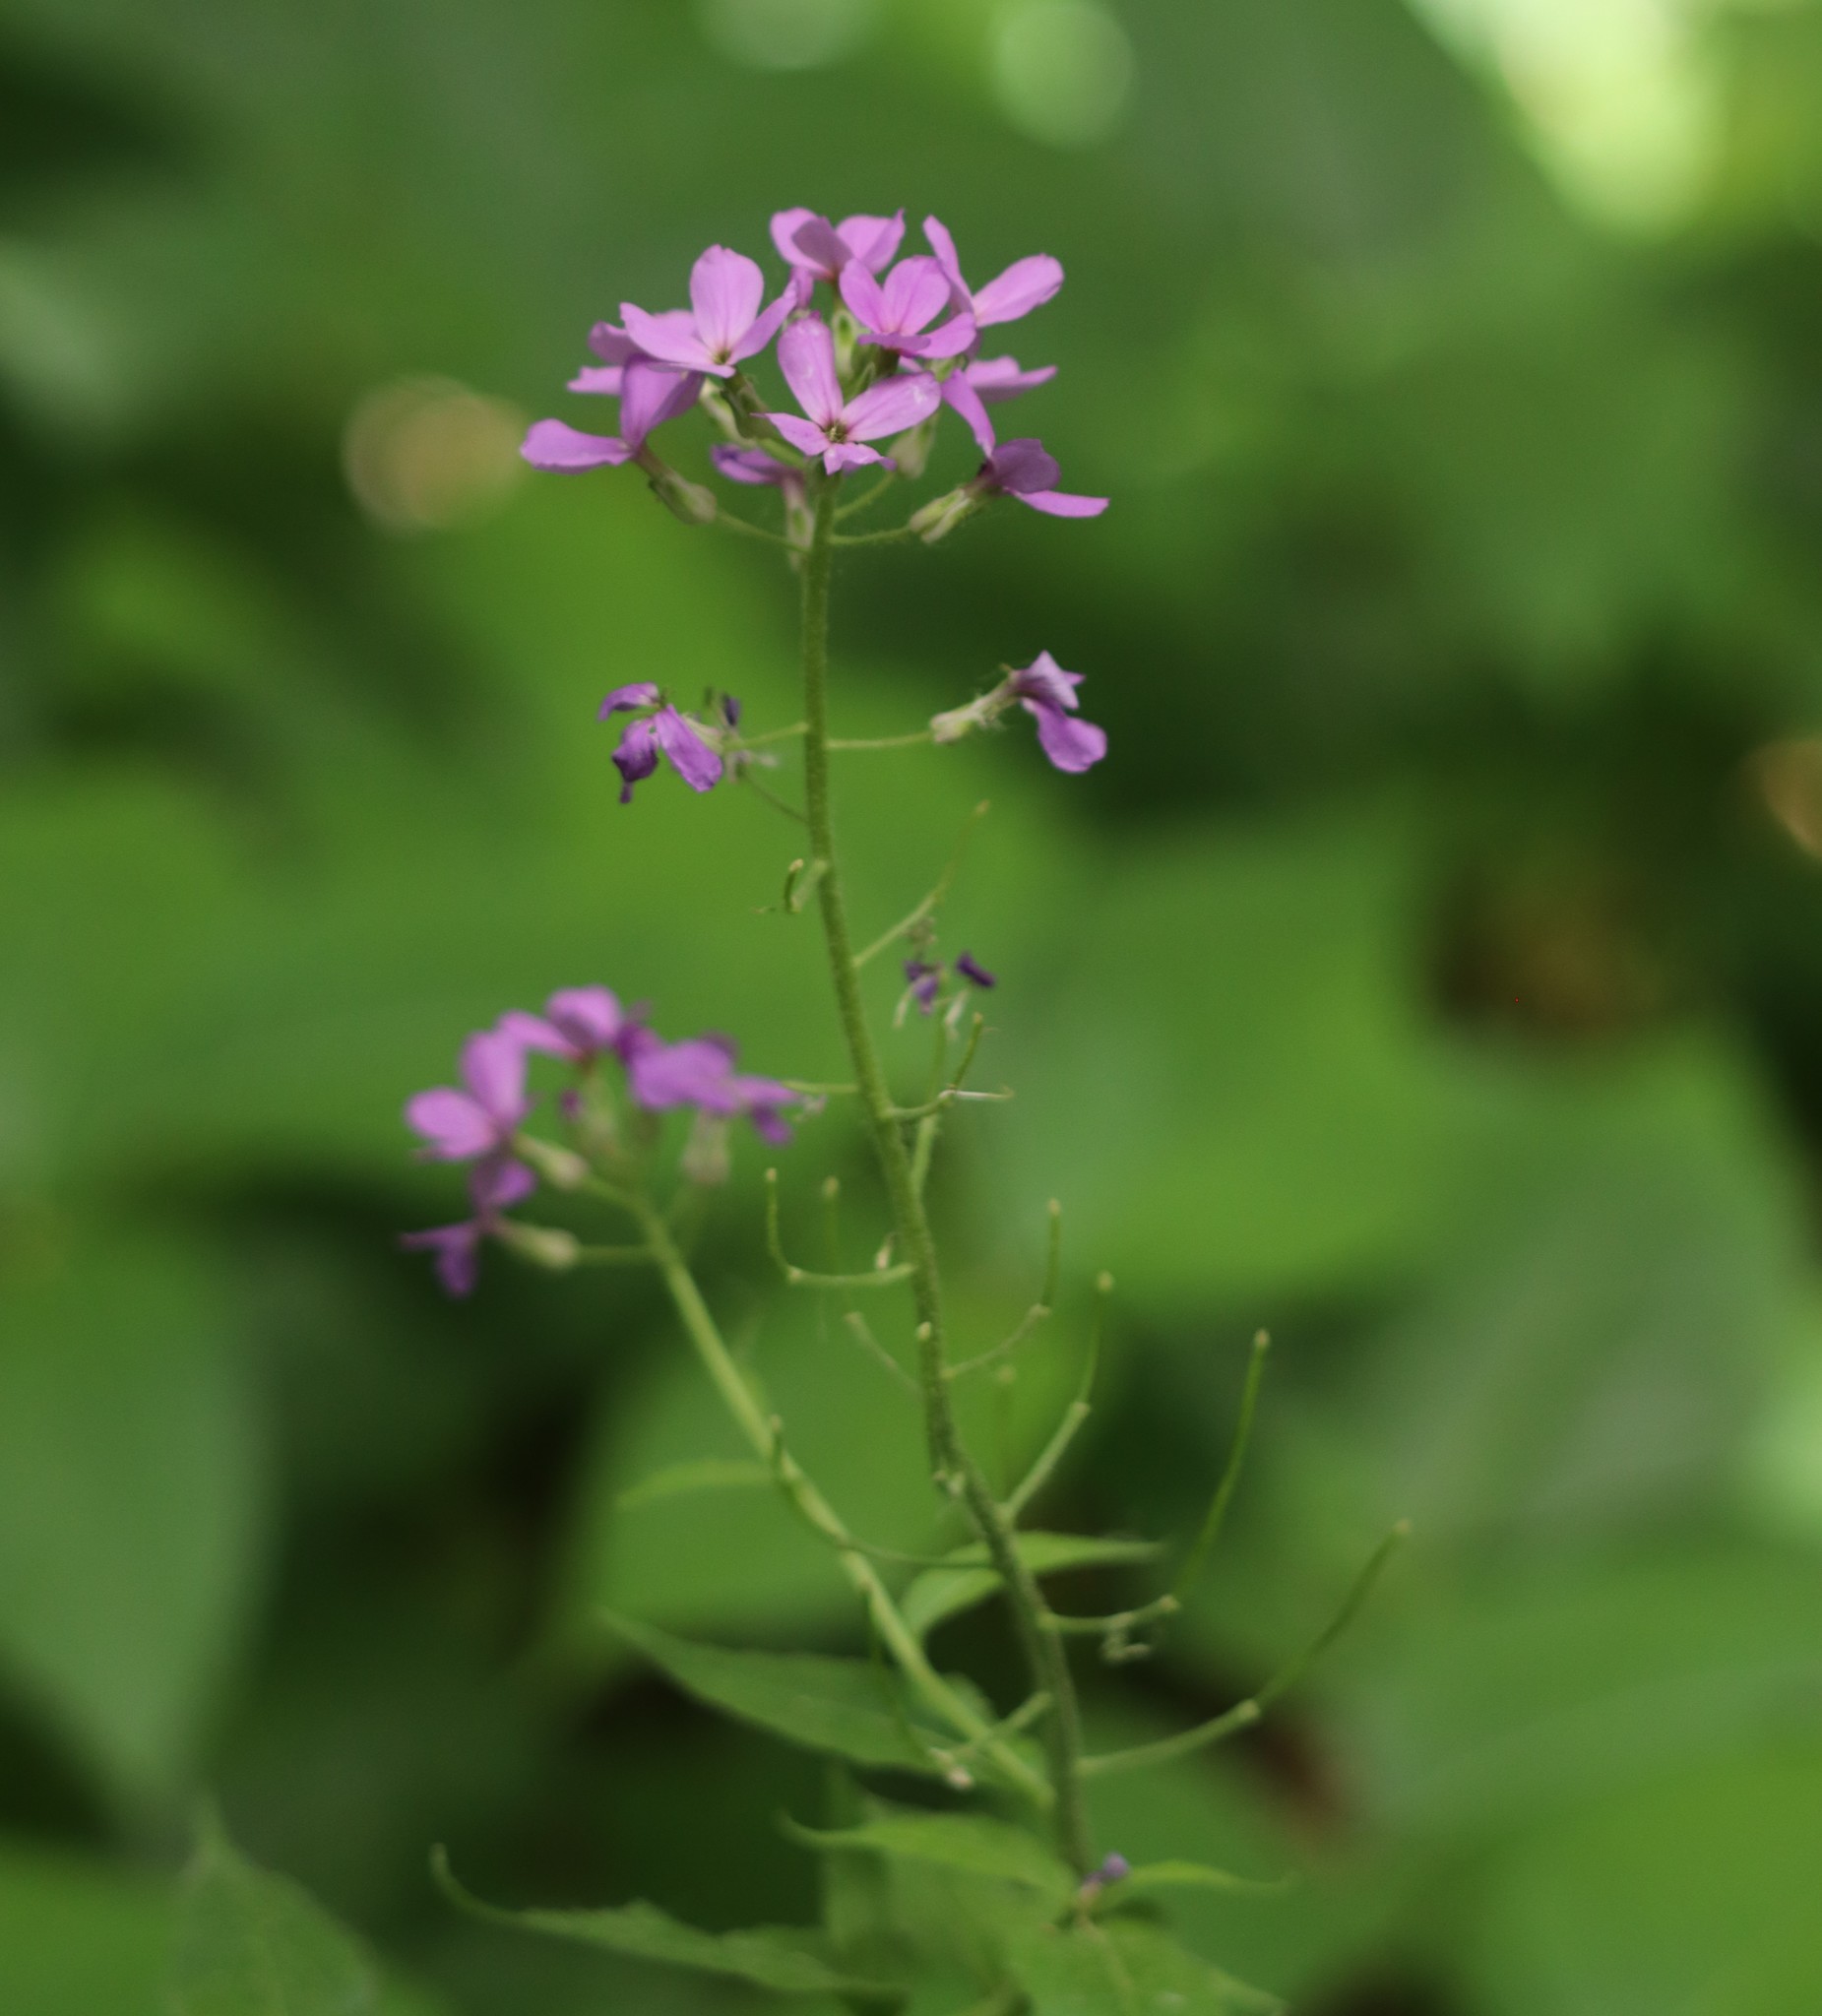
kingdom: Plantae
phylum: Tracheophyta
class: Magnoliopsida
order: Brassicales
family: Brassicaceae
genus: Hesperis
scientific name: Hesperis matronalis
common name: Dame's-violet
